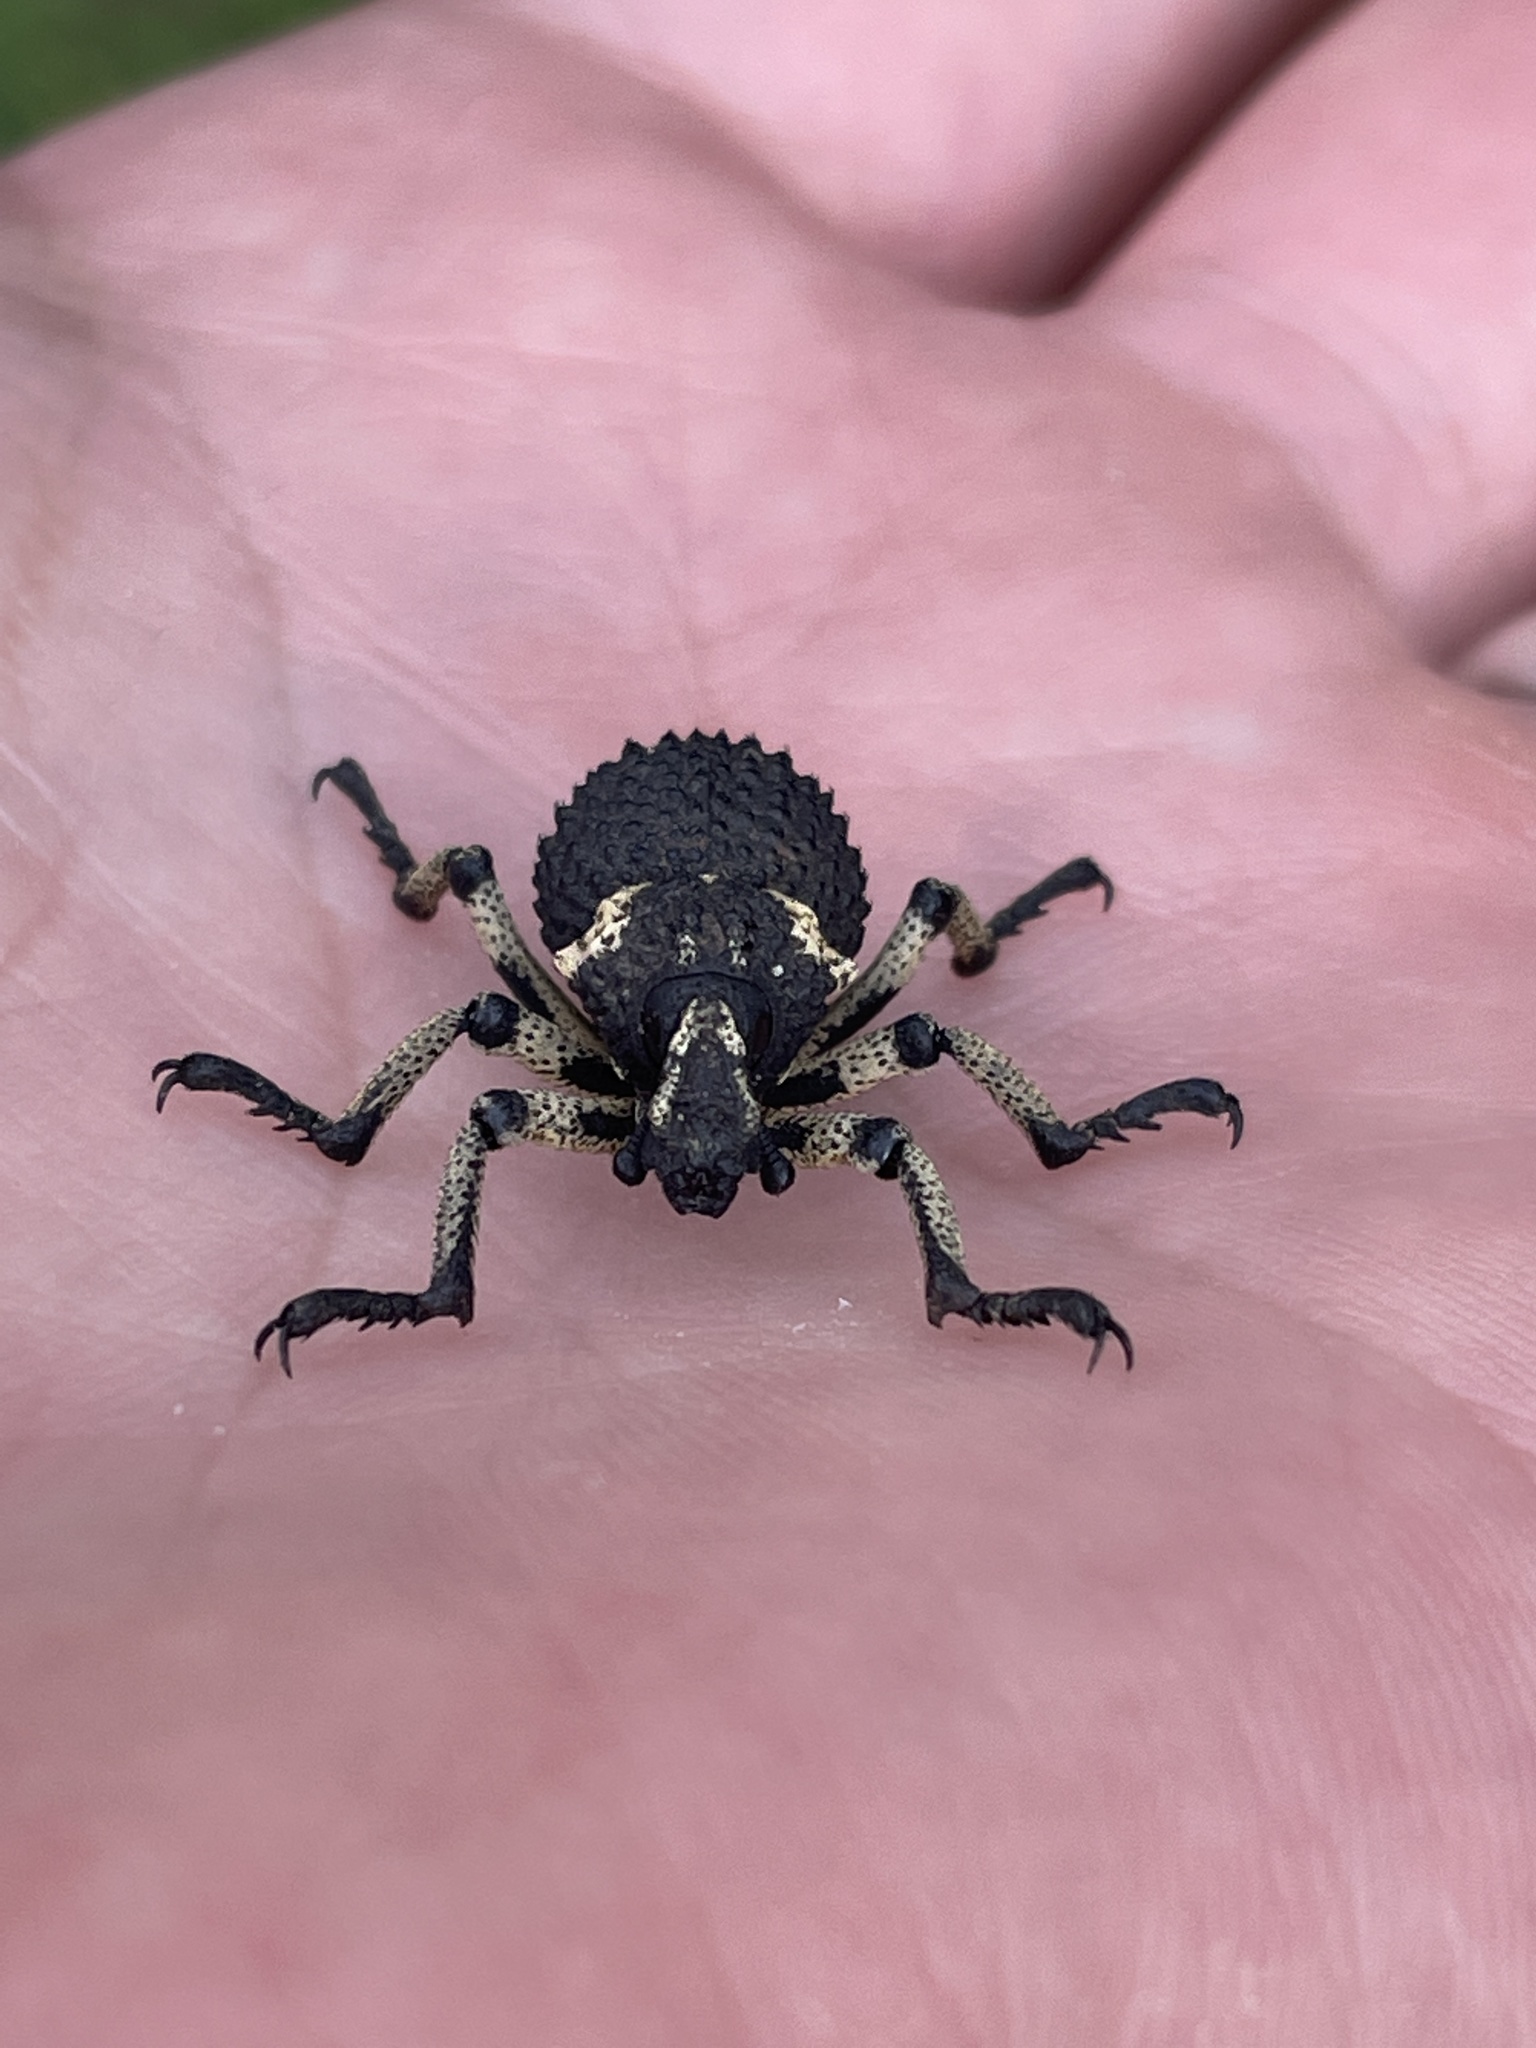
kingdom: Animalia
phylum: Arthropoda
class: Insecta
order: Coleoptera
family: Brachyceridae
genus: Brachycerus
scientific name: Brachycerus labrusca
